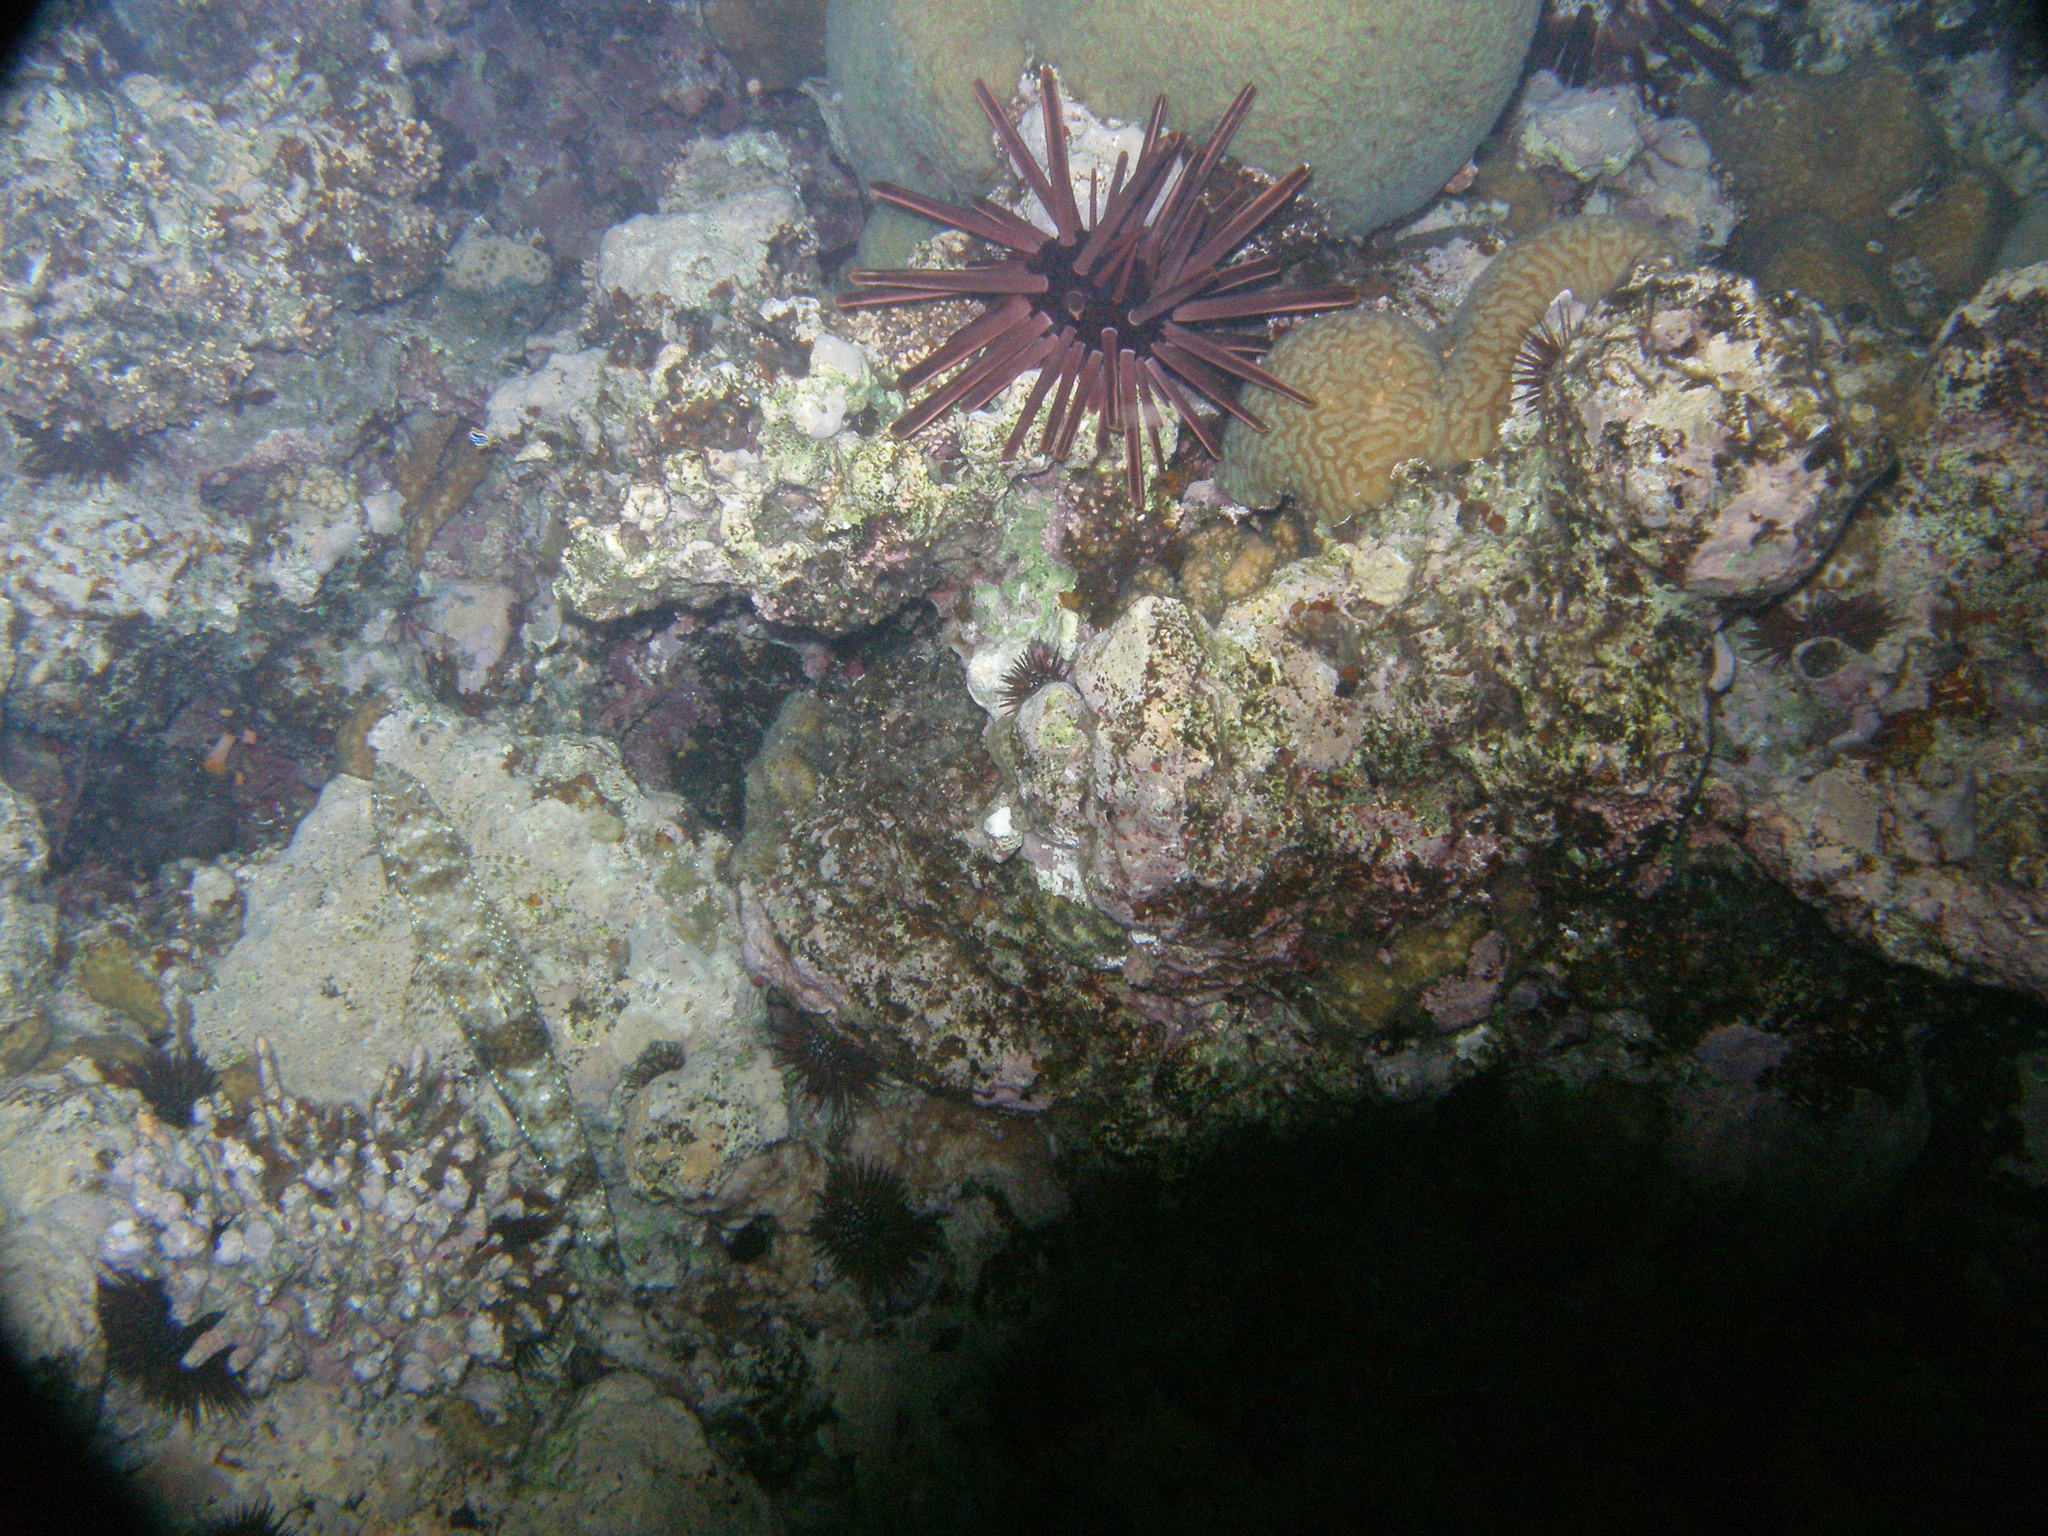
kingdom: Animalia
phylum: Echinodermata
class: Echinoidea
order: Camarodonta
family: Echinometridae
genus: Heterocentrotus
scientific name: Heterocentrotus mamillatus
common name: Slate pencil urchin
